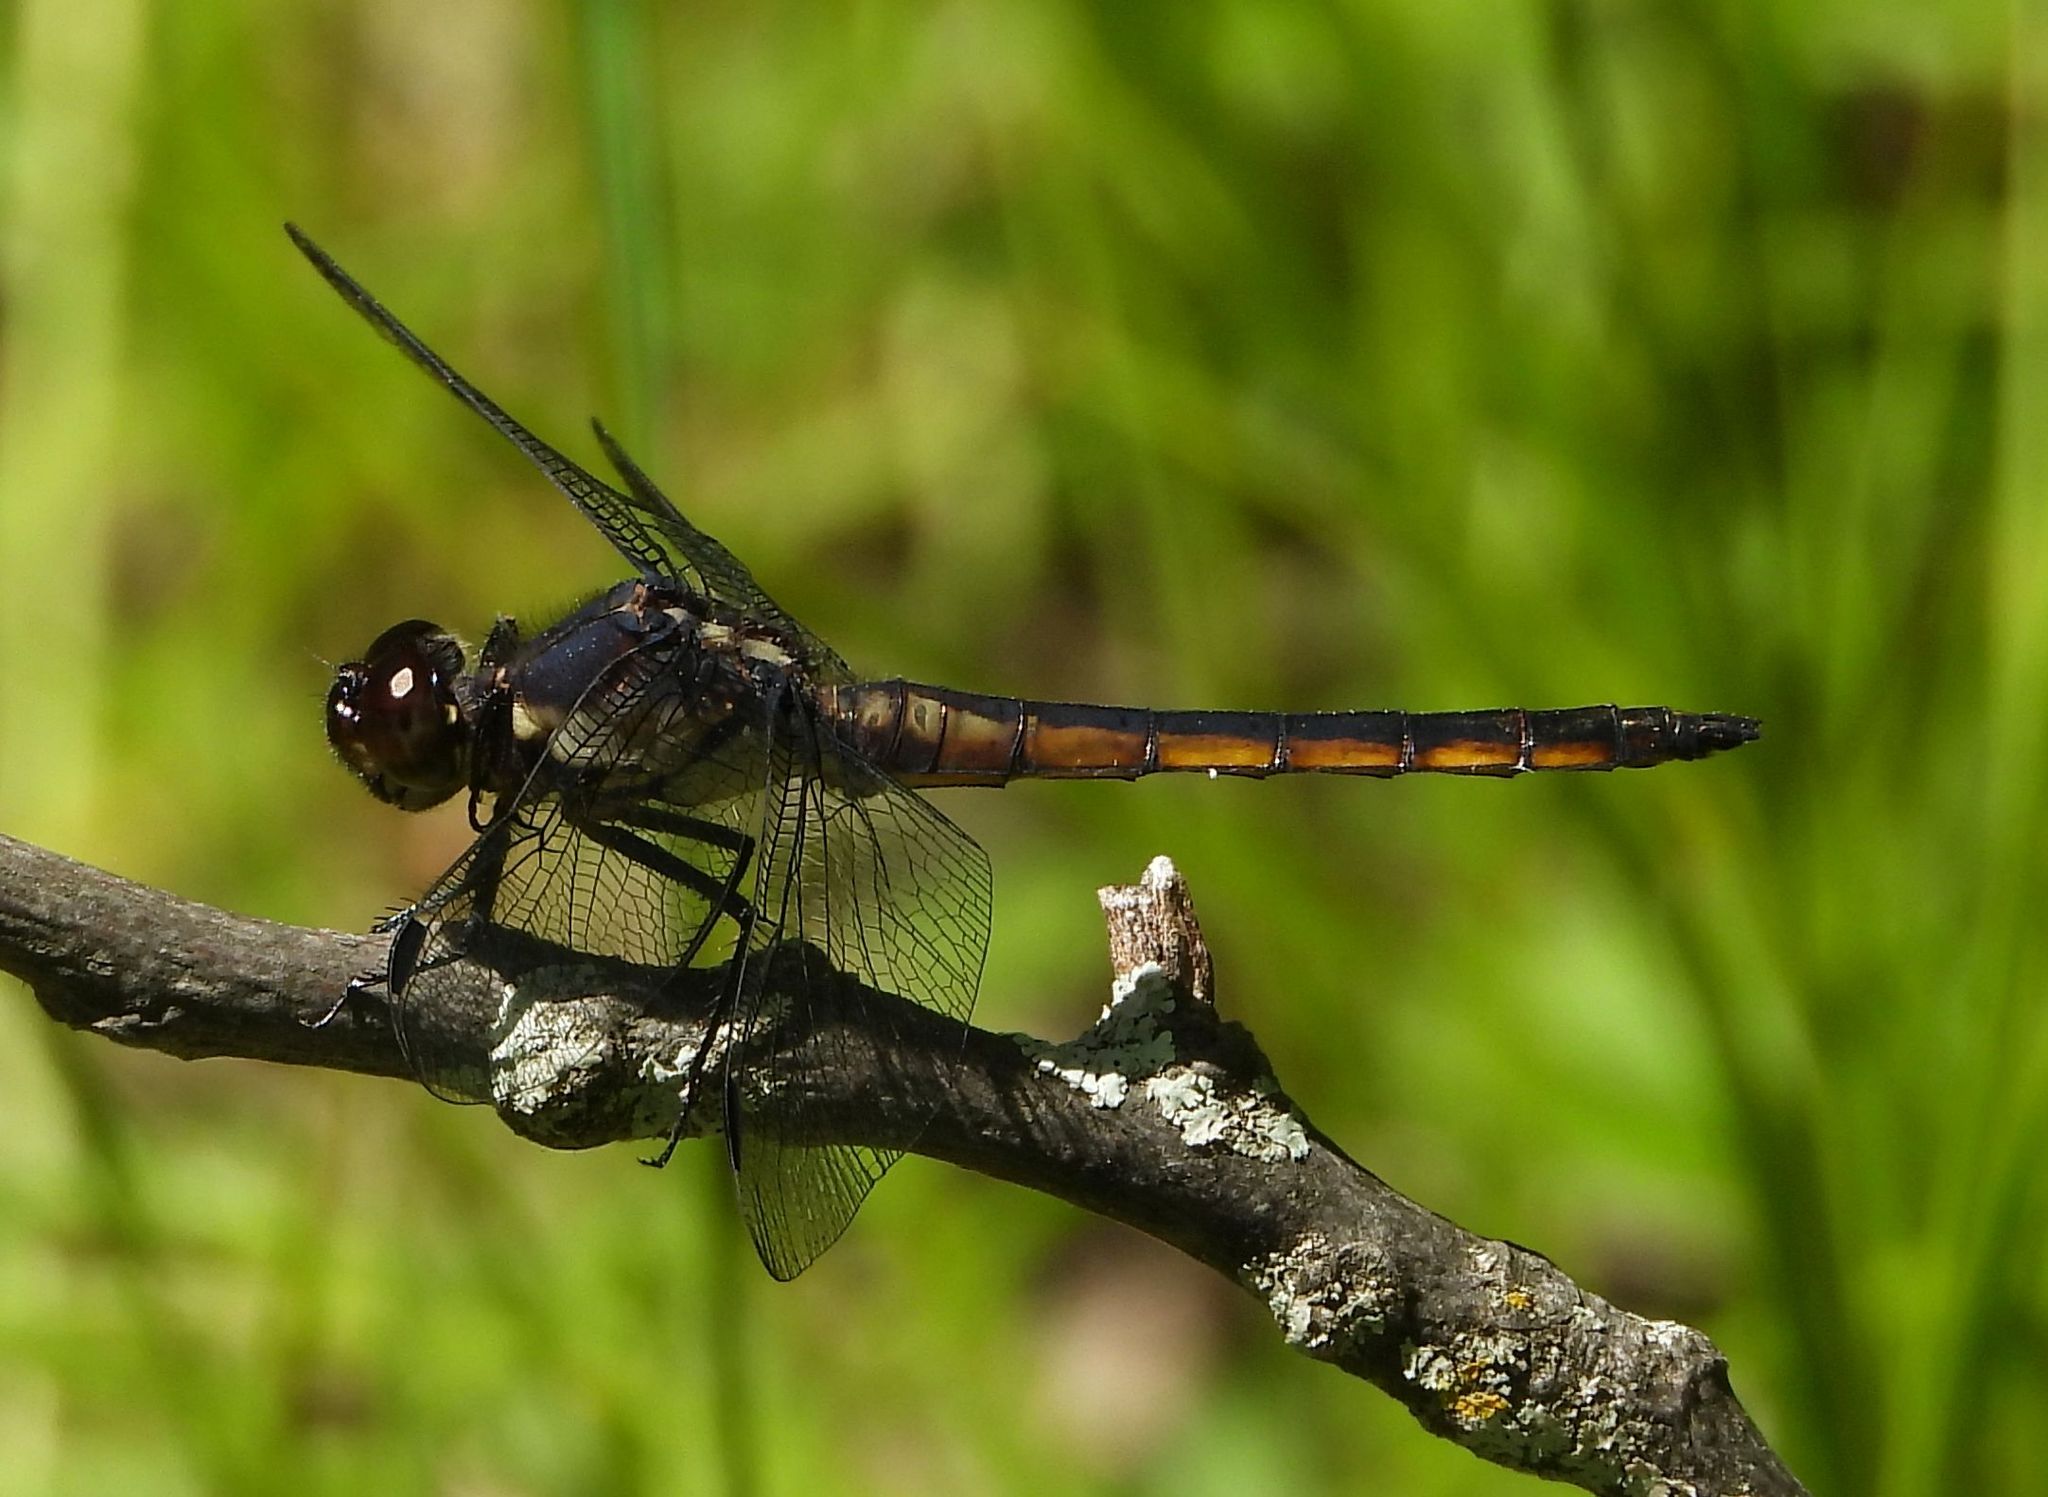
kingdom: Animalia
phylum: Arthropoda
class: Insecta
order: Odonata
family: Libellulidae
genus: Libellula
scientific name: Libellula incesta
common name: Slaty skimmer
